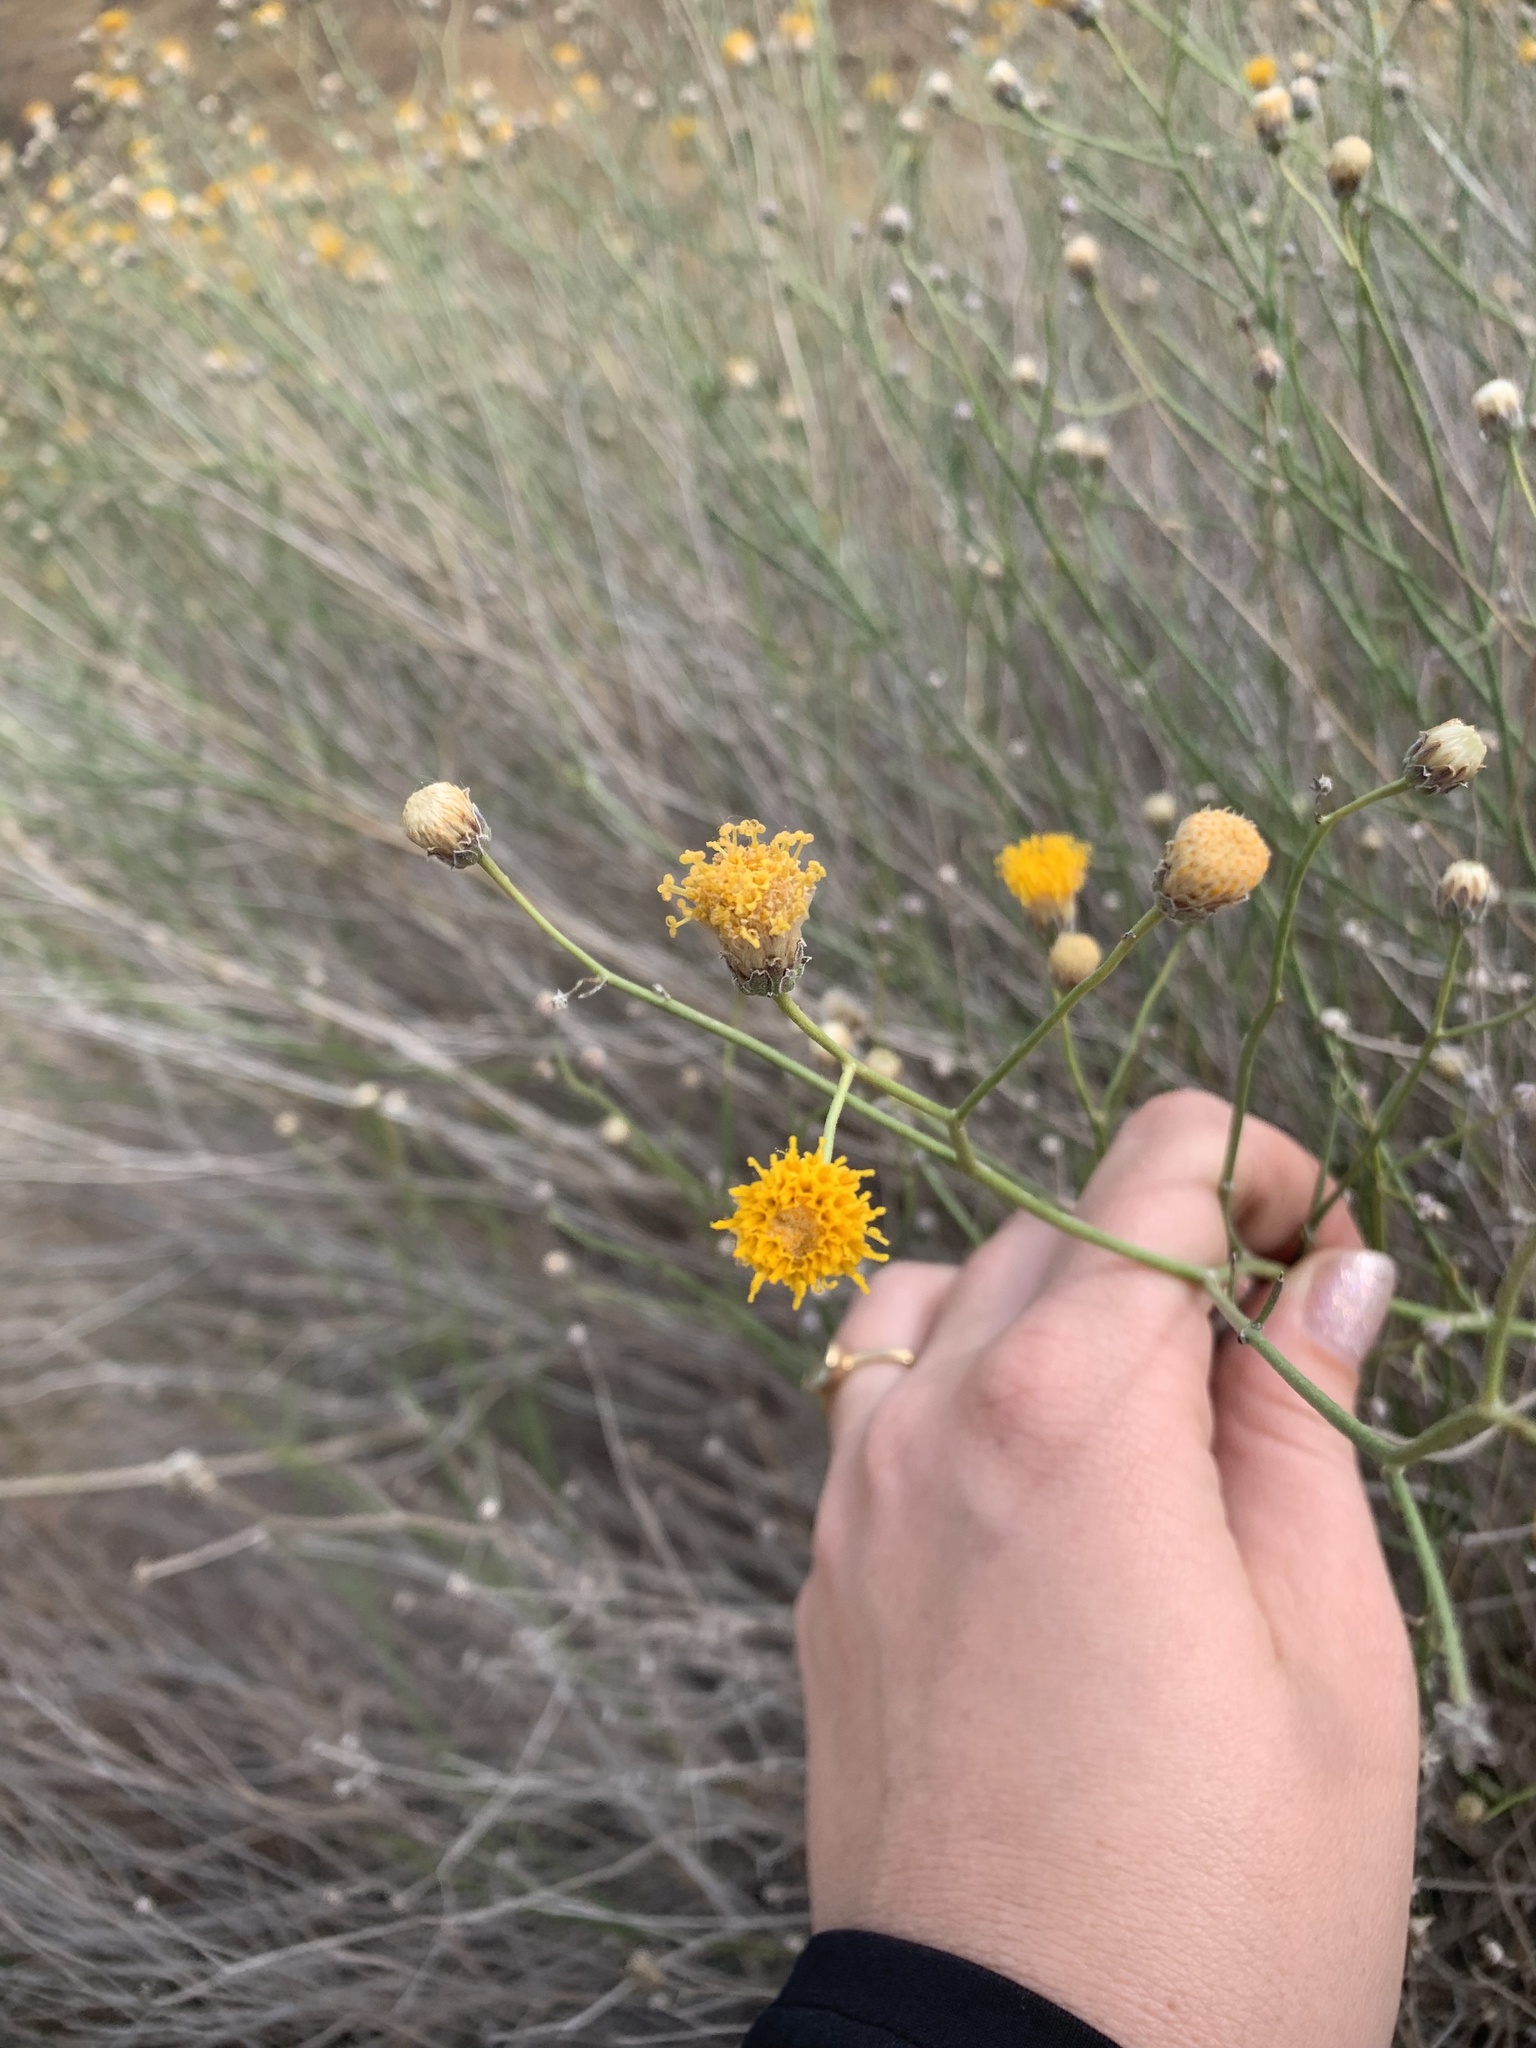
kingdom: Plantae
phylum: Tracheophyta
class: Magnoliopsida
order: Asterales
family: Asteraceae
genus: Bebbia
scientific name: Bebbia juncea
